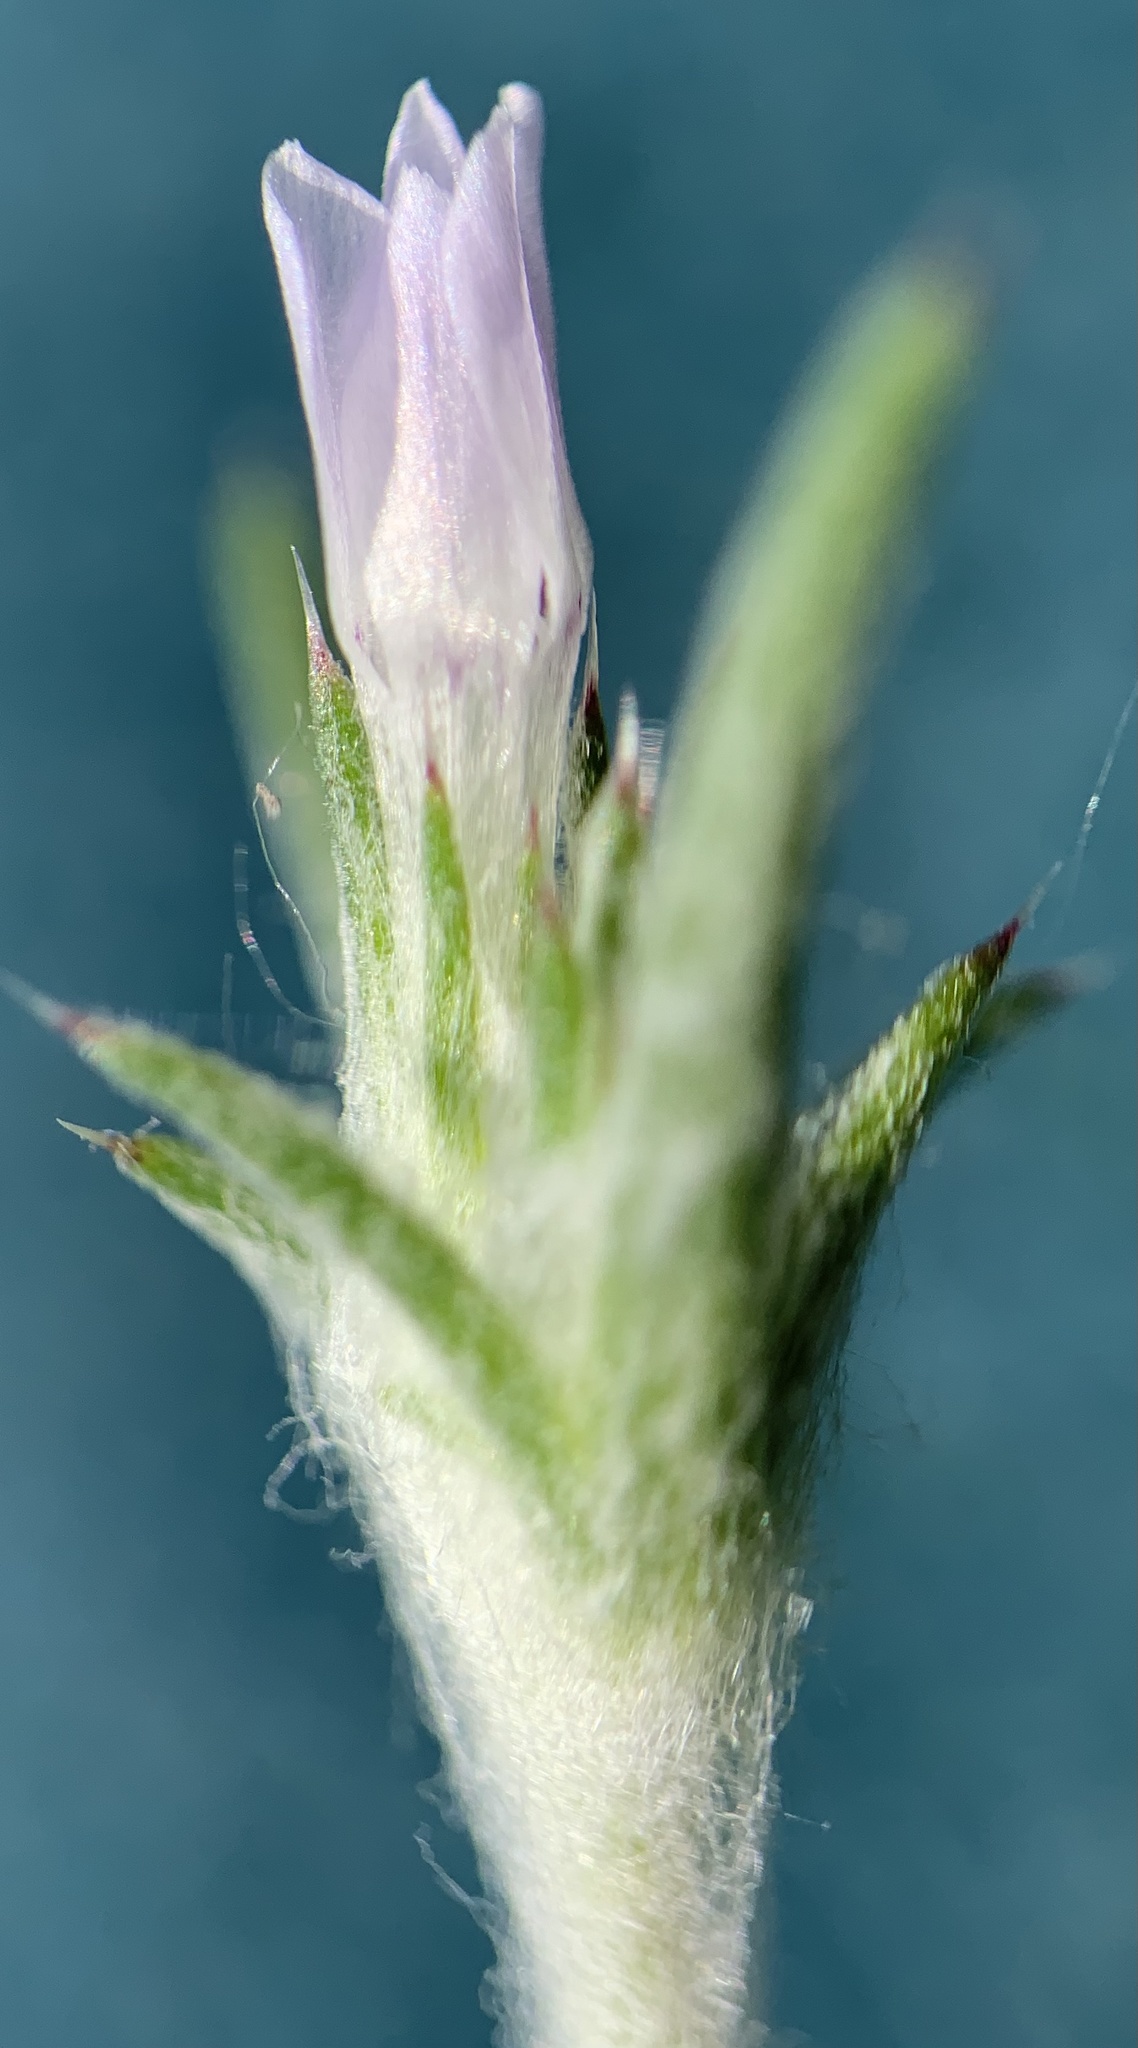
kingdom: Plantae
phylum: Tracheophyta
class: Magnoliopsida
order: Ericales
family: Polemoniaceae
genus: Eriastrum
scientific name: Eriastrum wilcoxii
